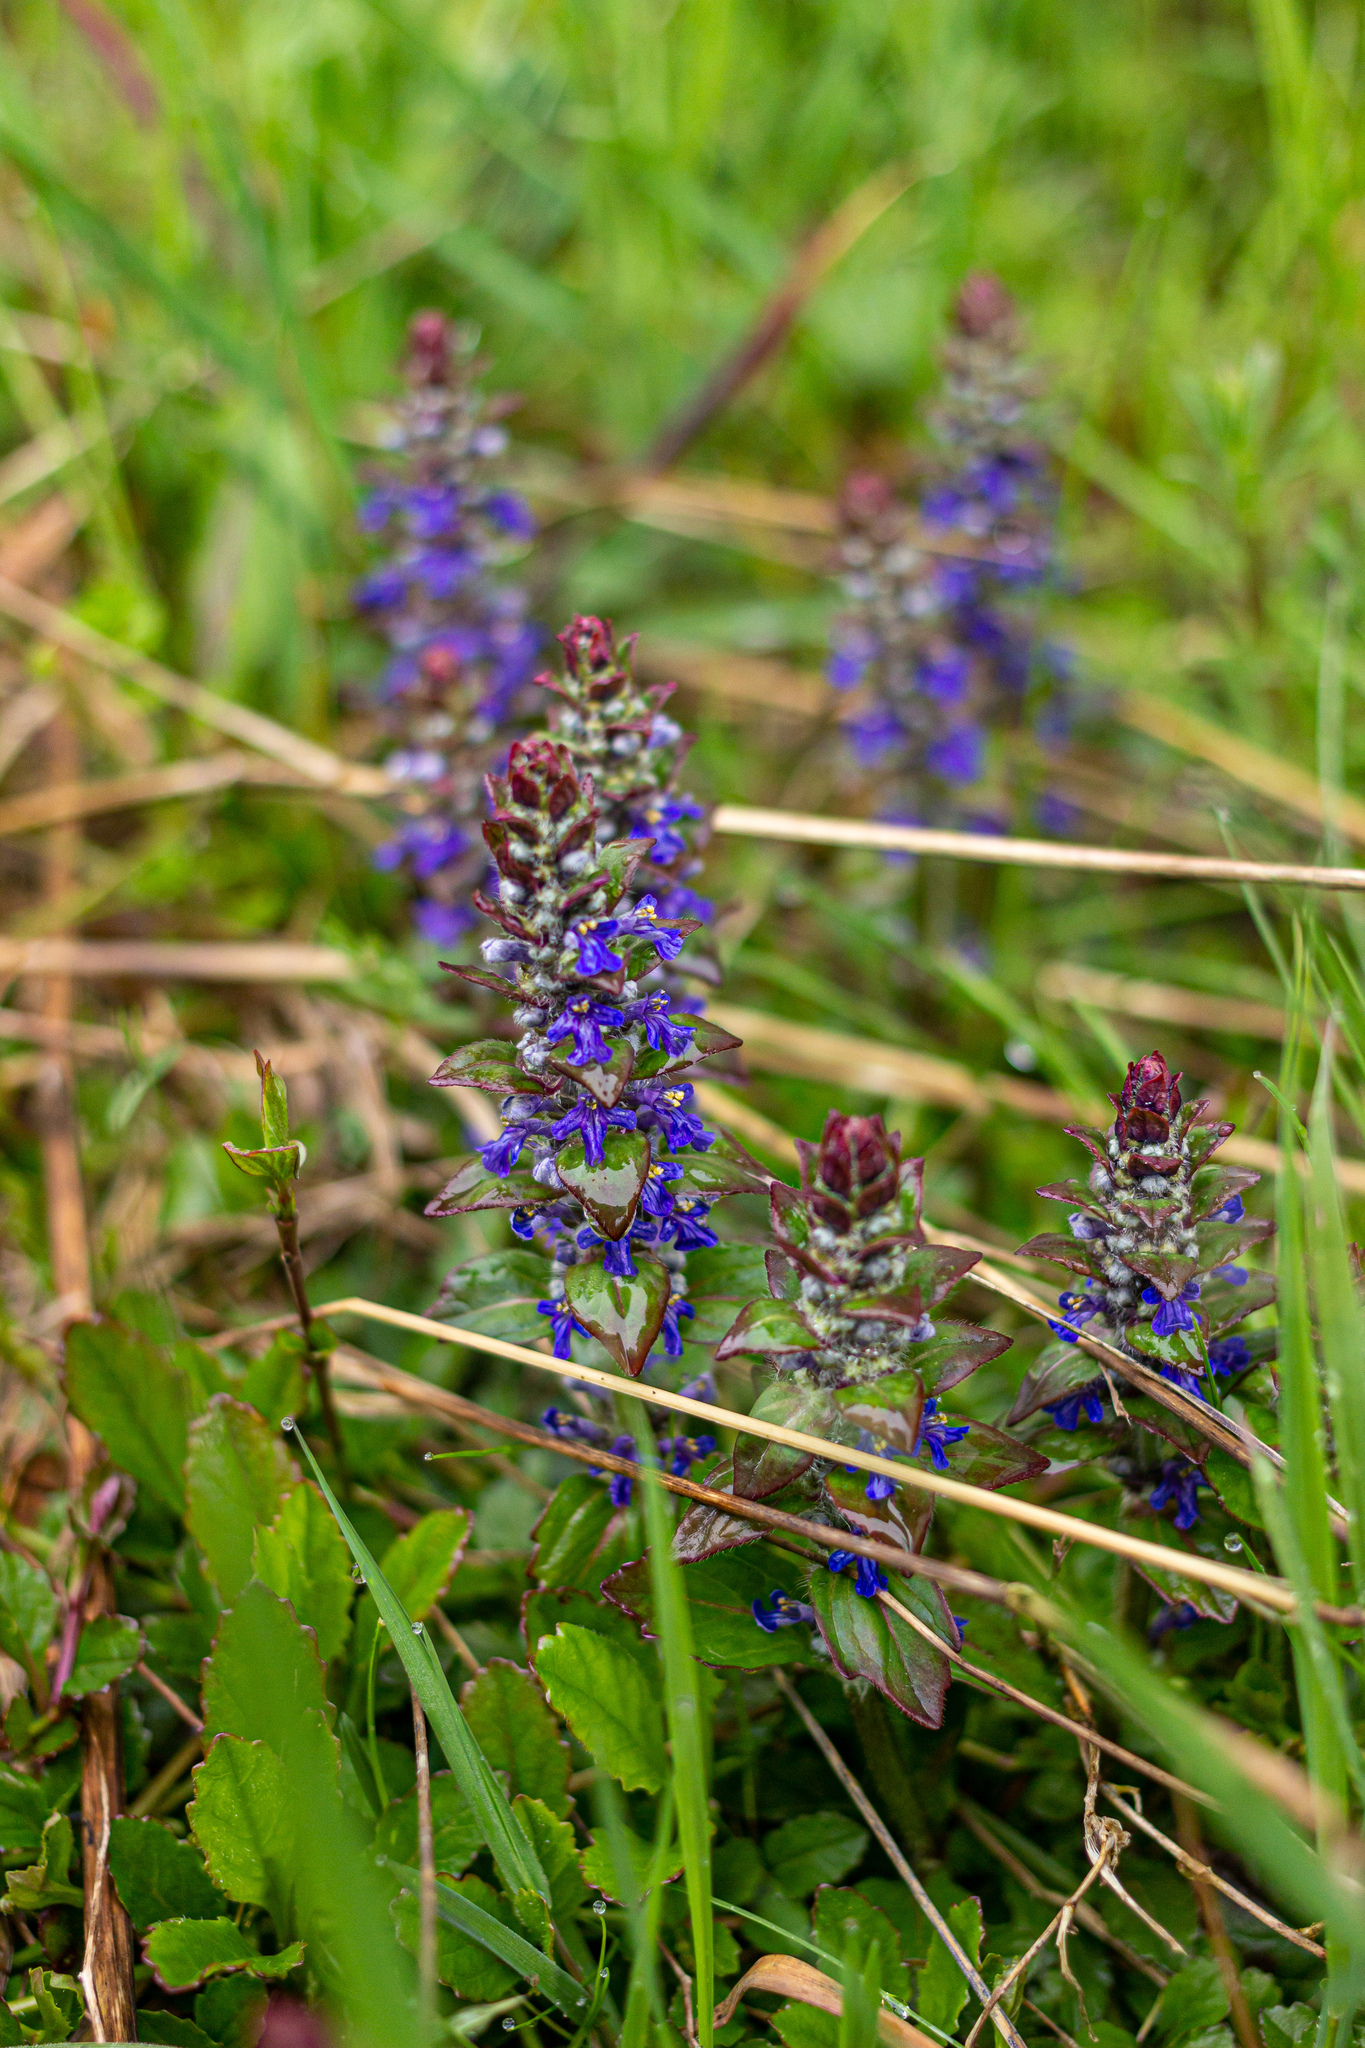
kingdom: Plantae
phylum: Tracheophyta
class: Magnoliopsida
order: Lamiales
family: Lamiaceae
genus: Ajuga
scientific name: Ajuga reptans
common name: Bugle
